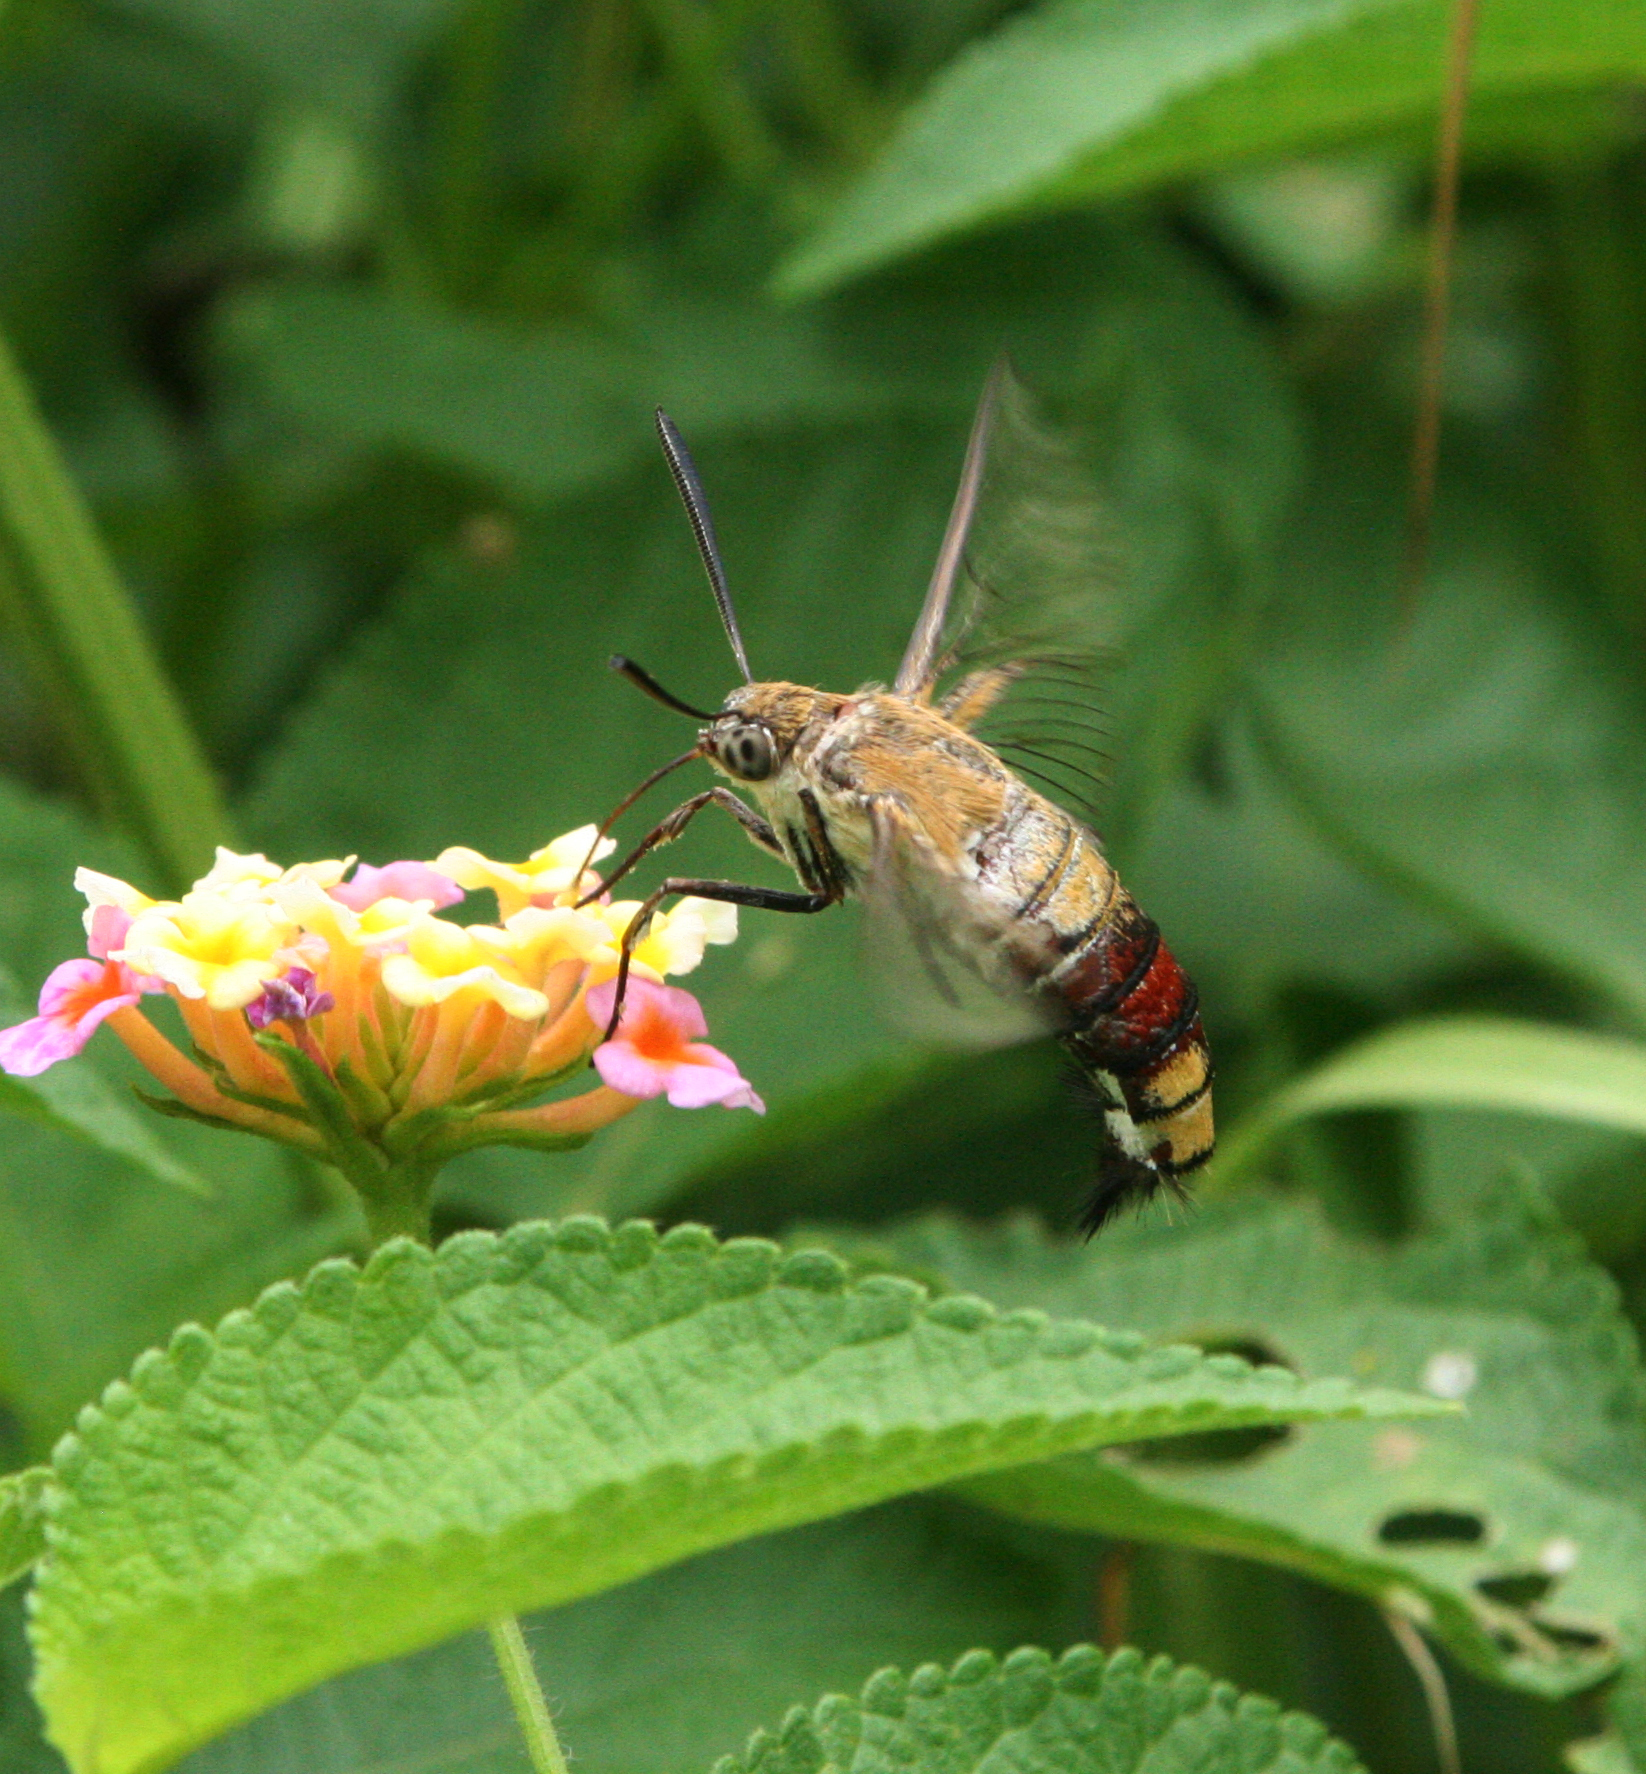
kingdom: Animalia
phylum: Arthropoda
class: Insecta
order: Lepidoptera
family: Sphingidae
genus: Cephonodes
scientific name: Cephonodes hylas
